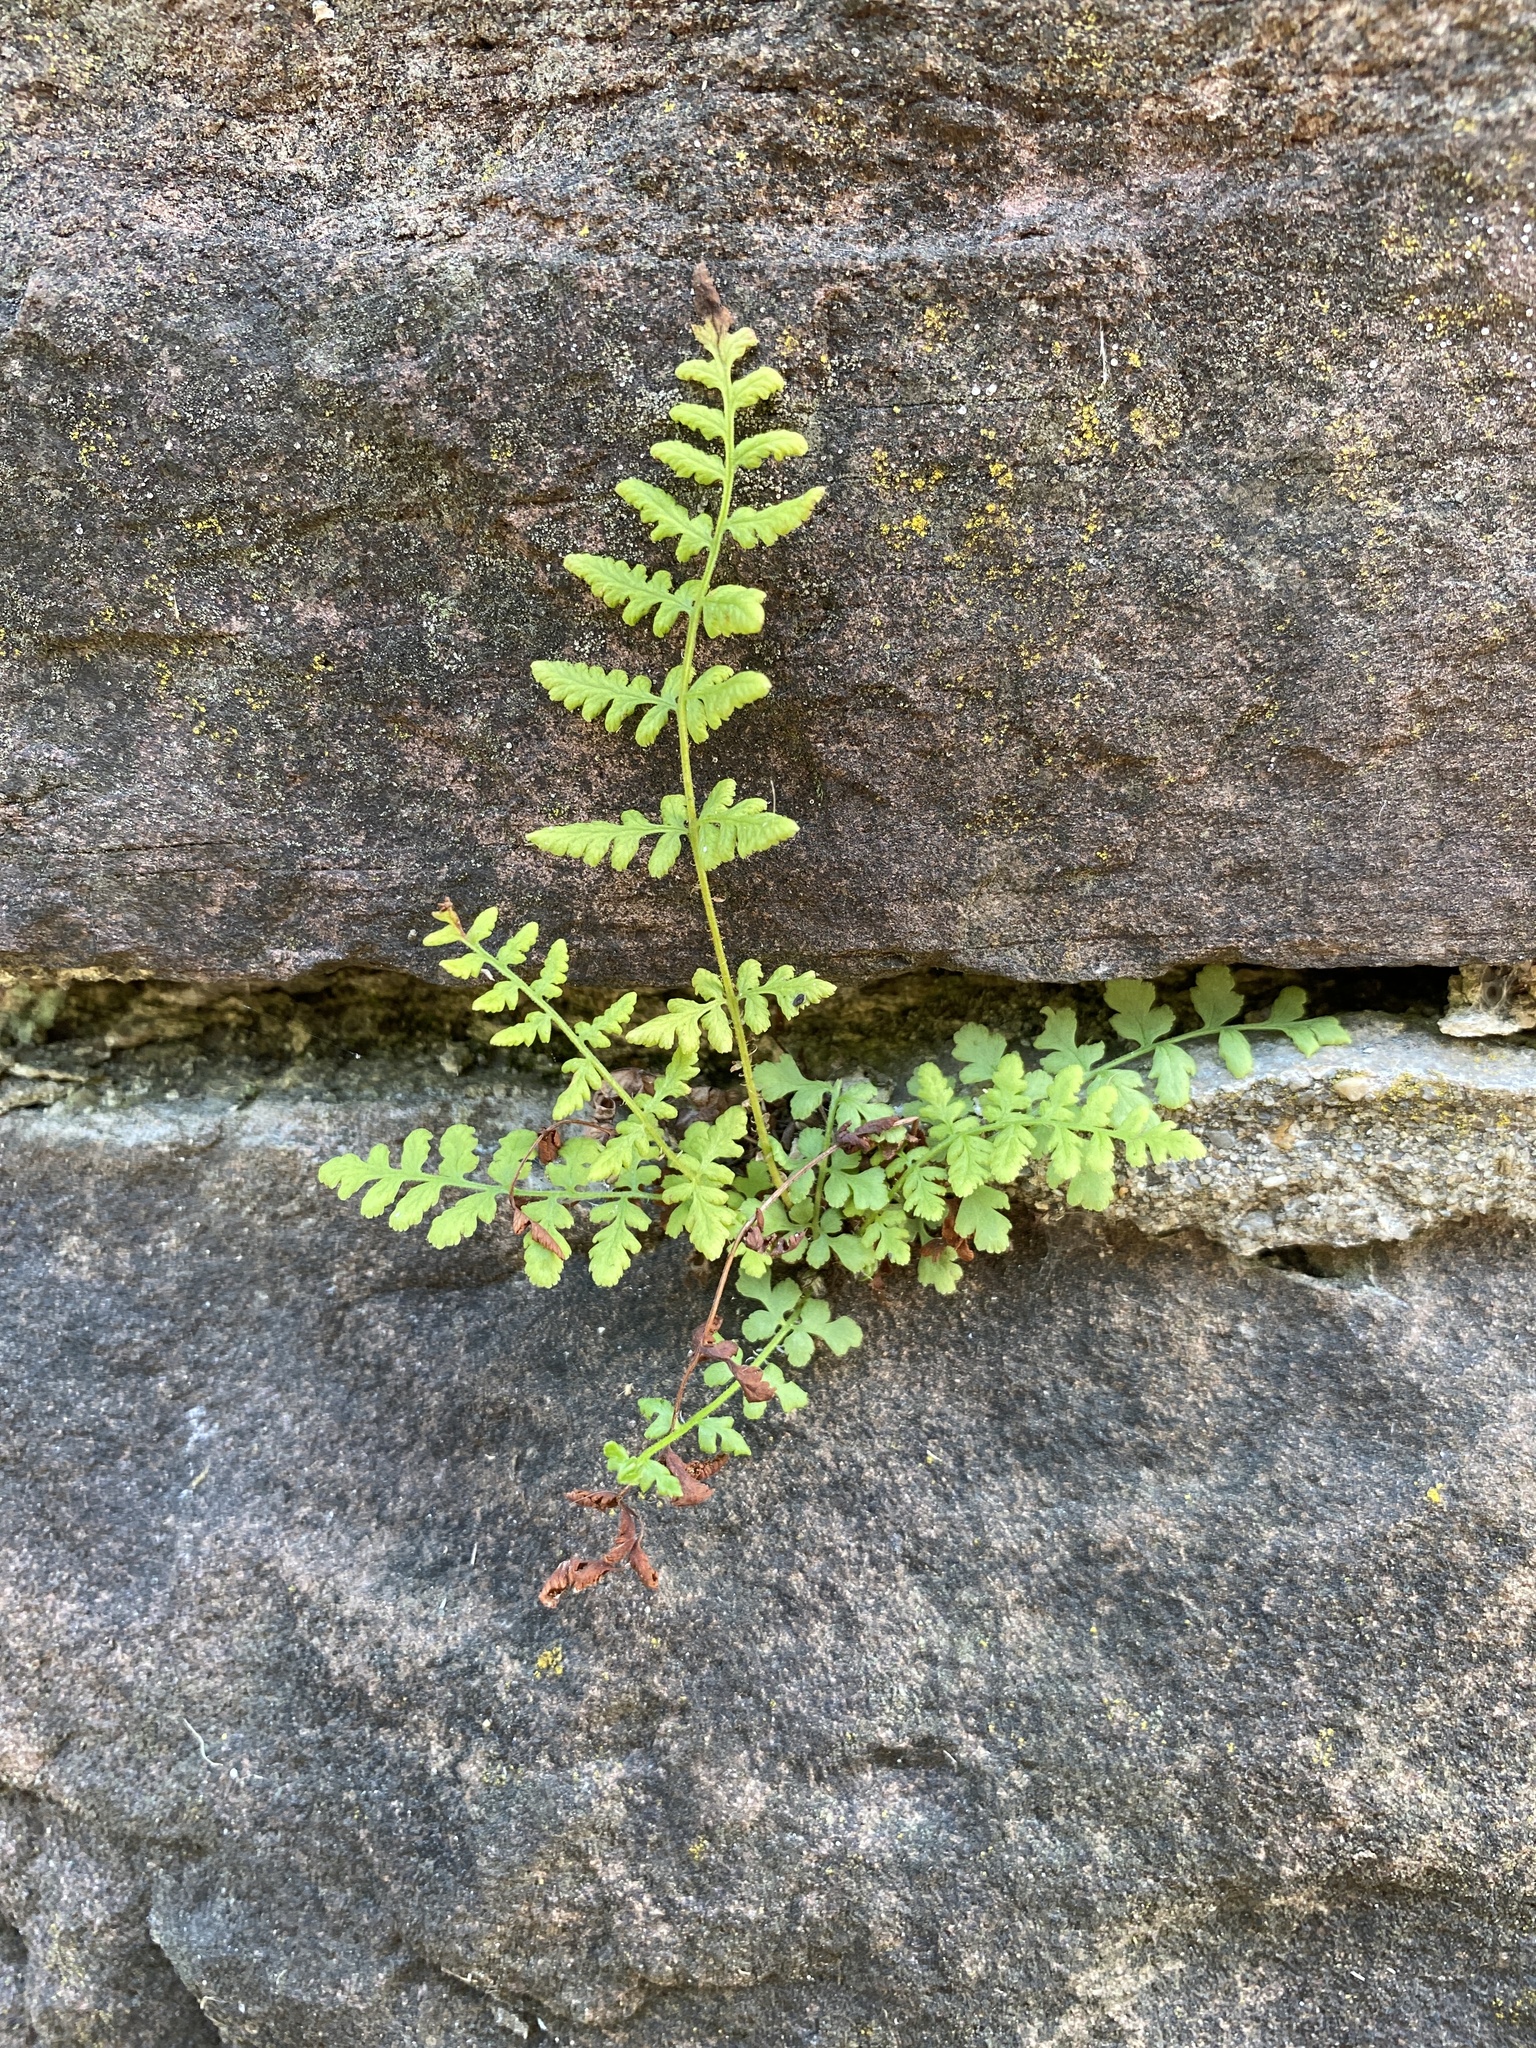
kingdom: Plantae
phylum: Tracheophyta
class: Polypodiopsida
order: Polypodiales
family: Woodsiaceae
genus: Physematium
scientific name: Physematium obtusum
